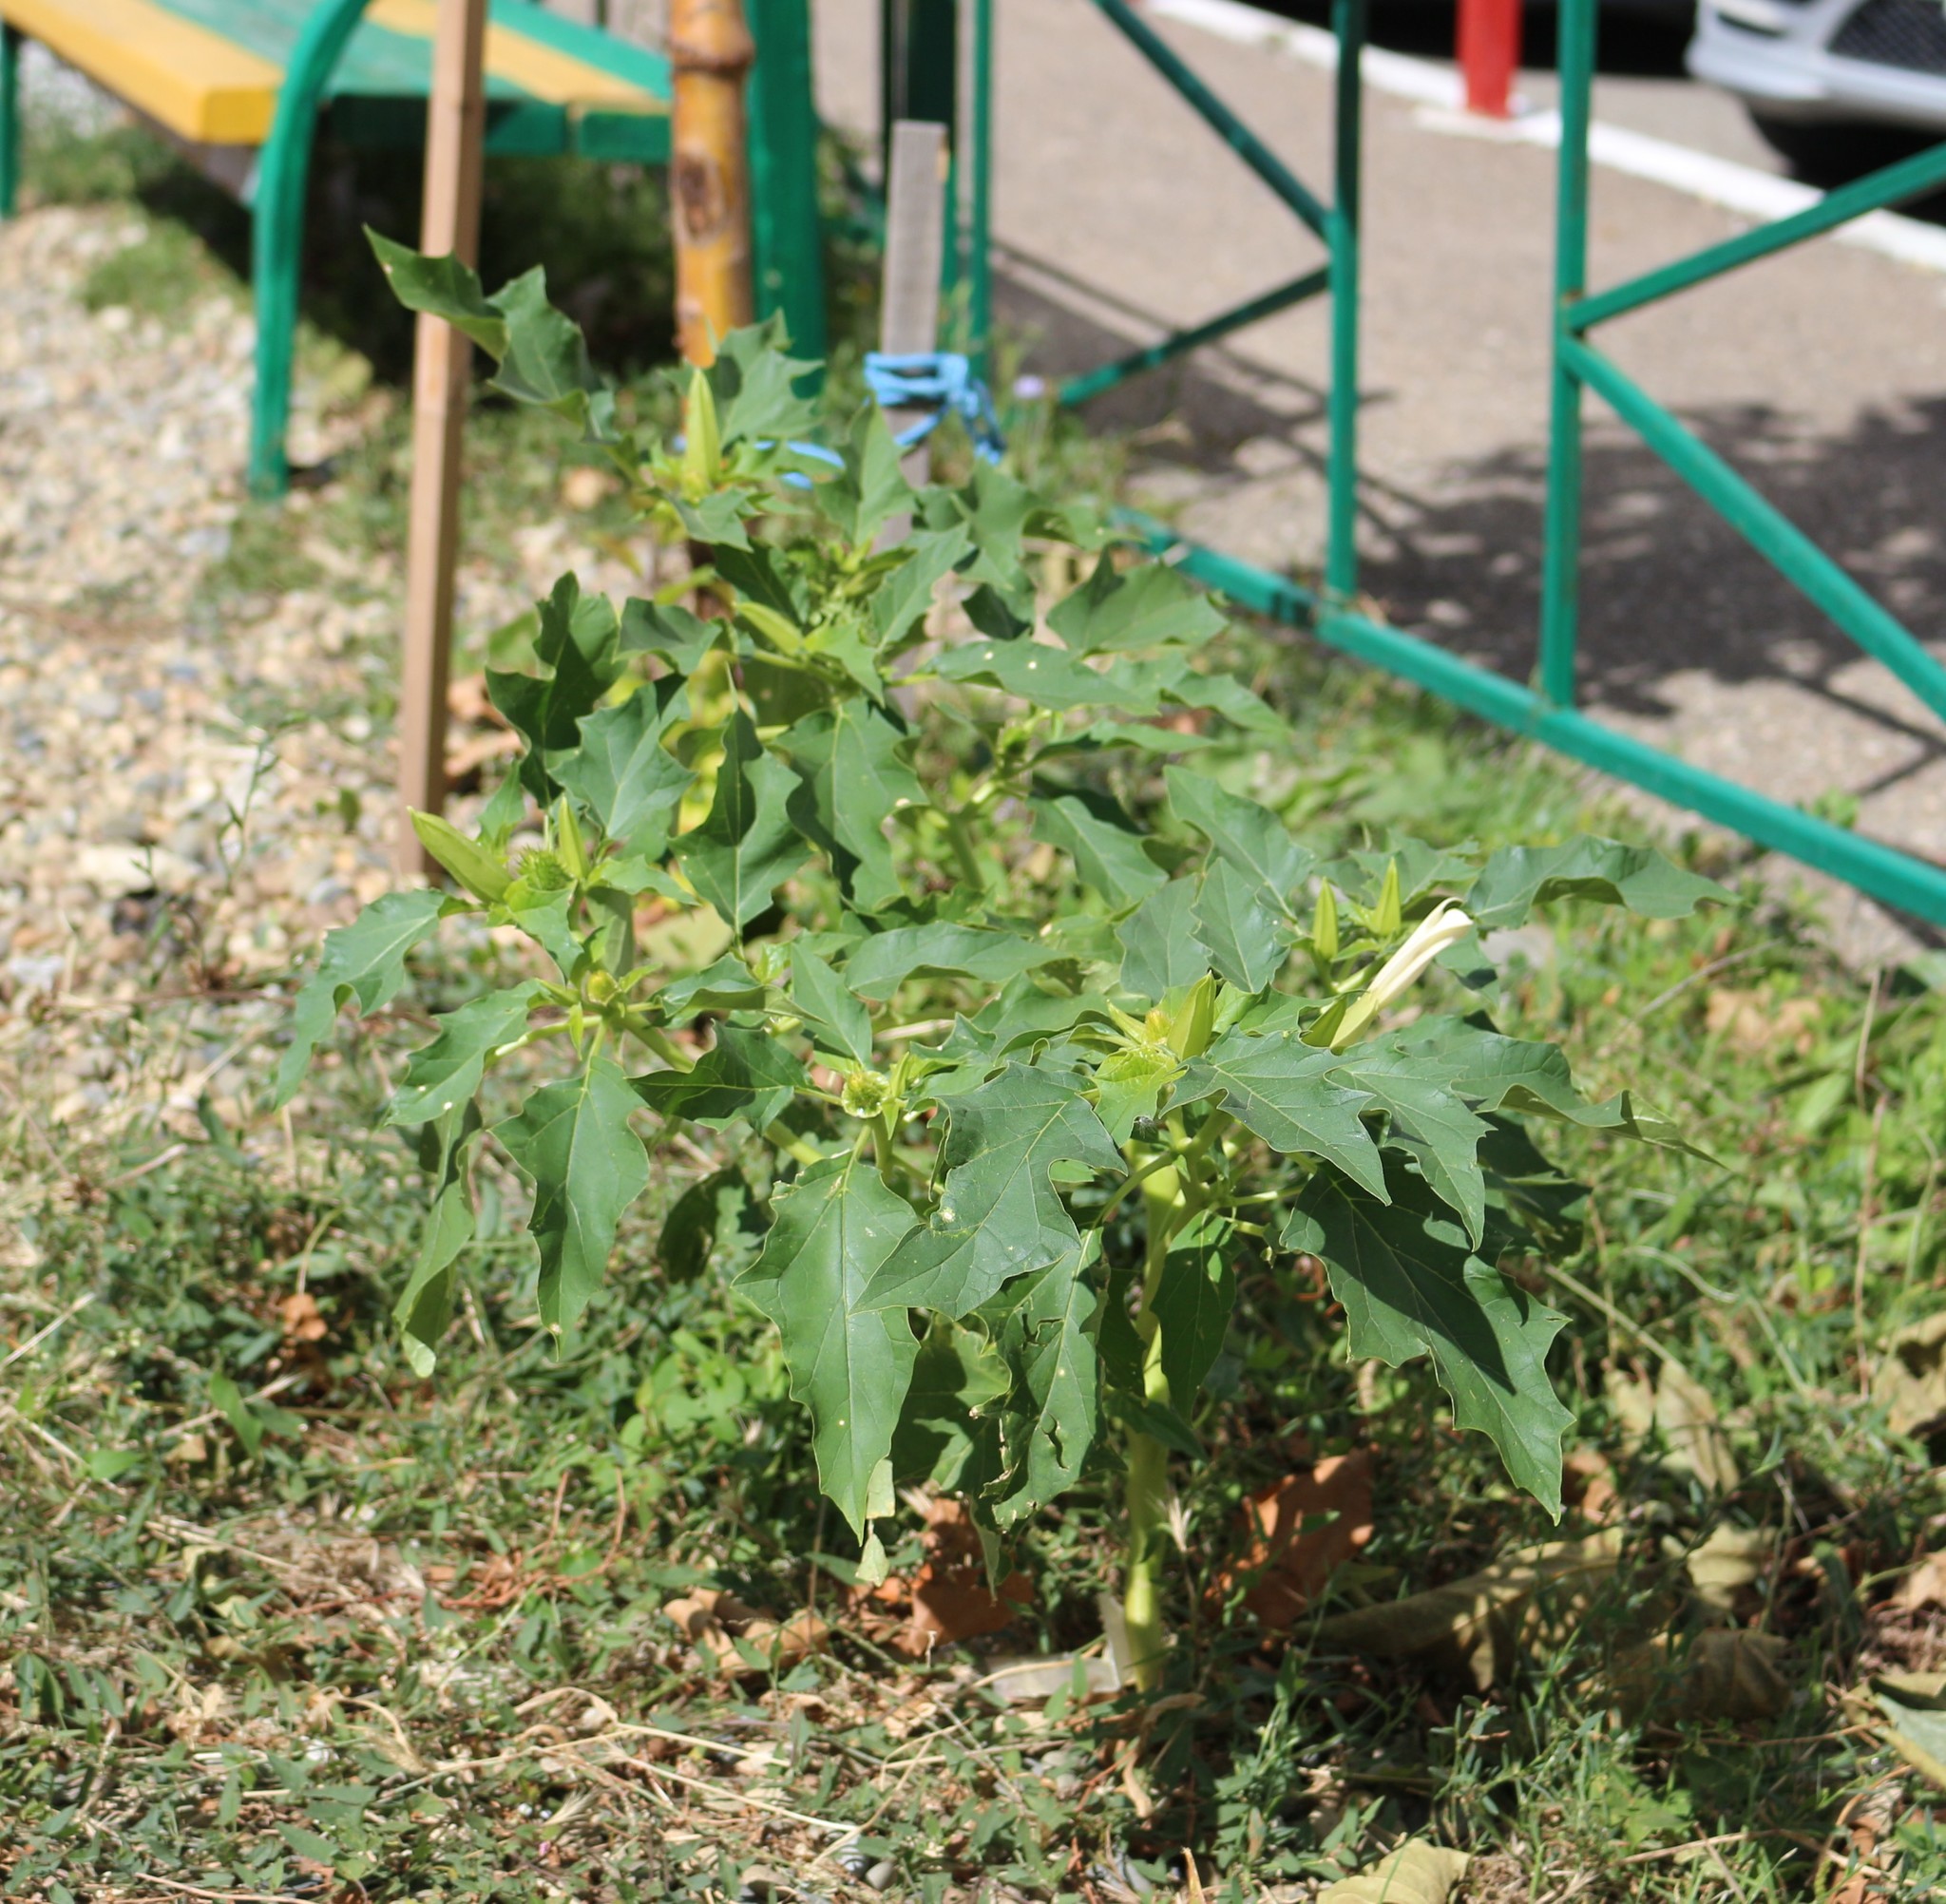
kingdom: Plantae
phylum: Tracheophyta
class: Magnoliopsida
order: Solanales
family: Solanaceae
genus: Datura
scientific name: Datura stramonium
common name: Thorn-apple
